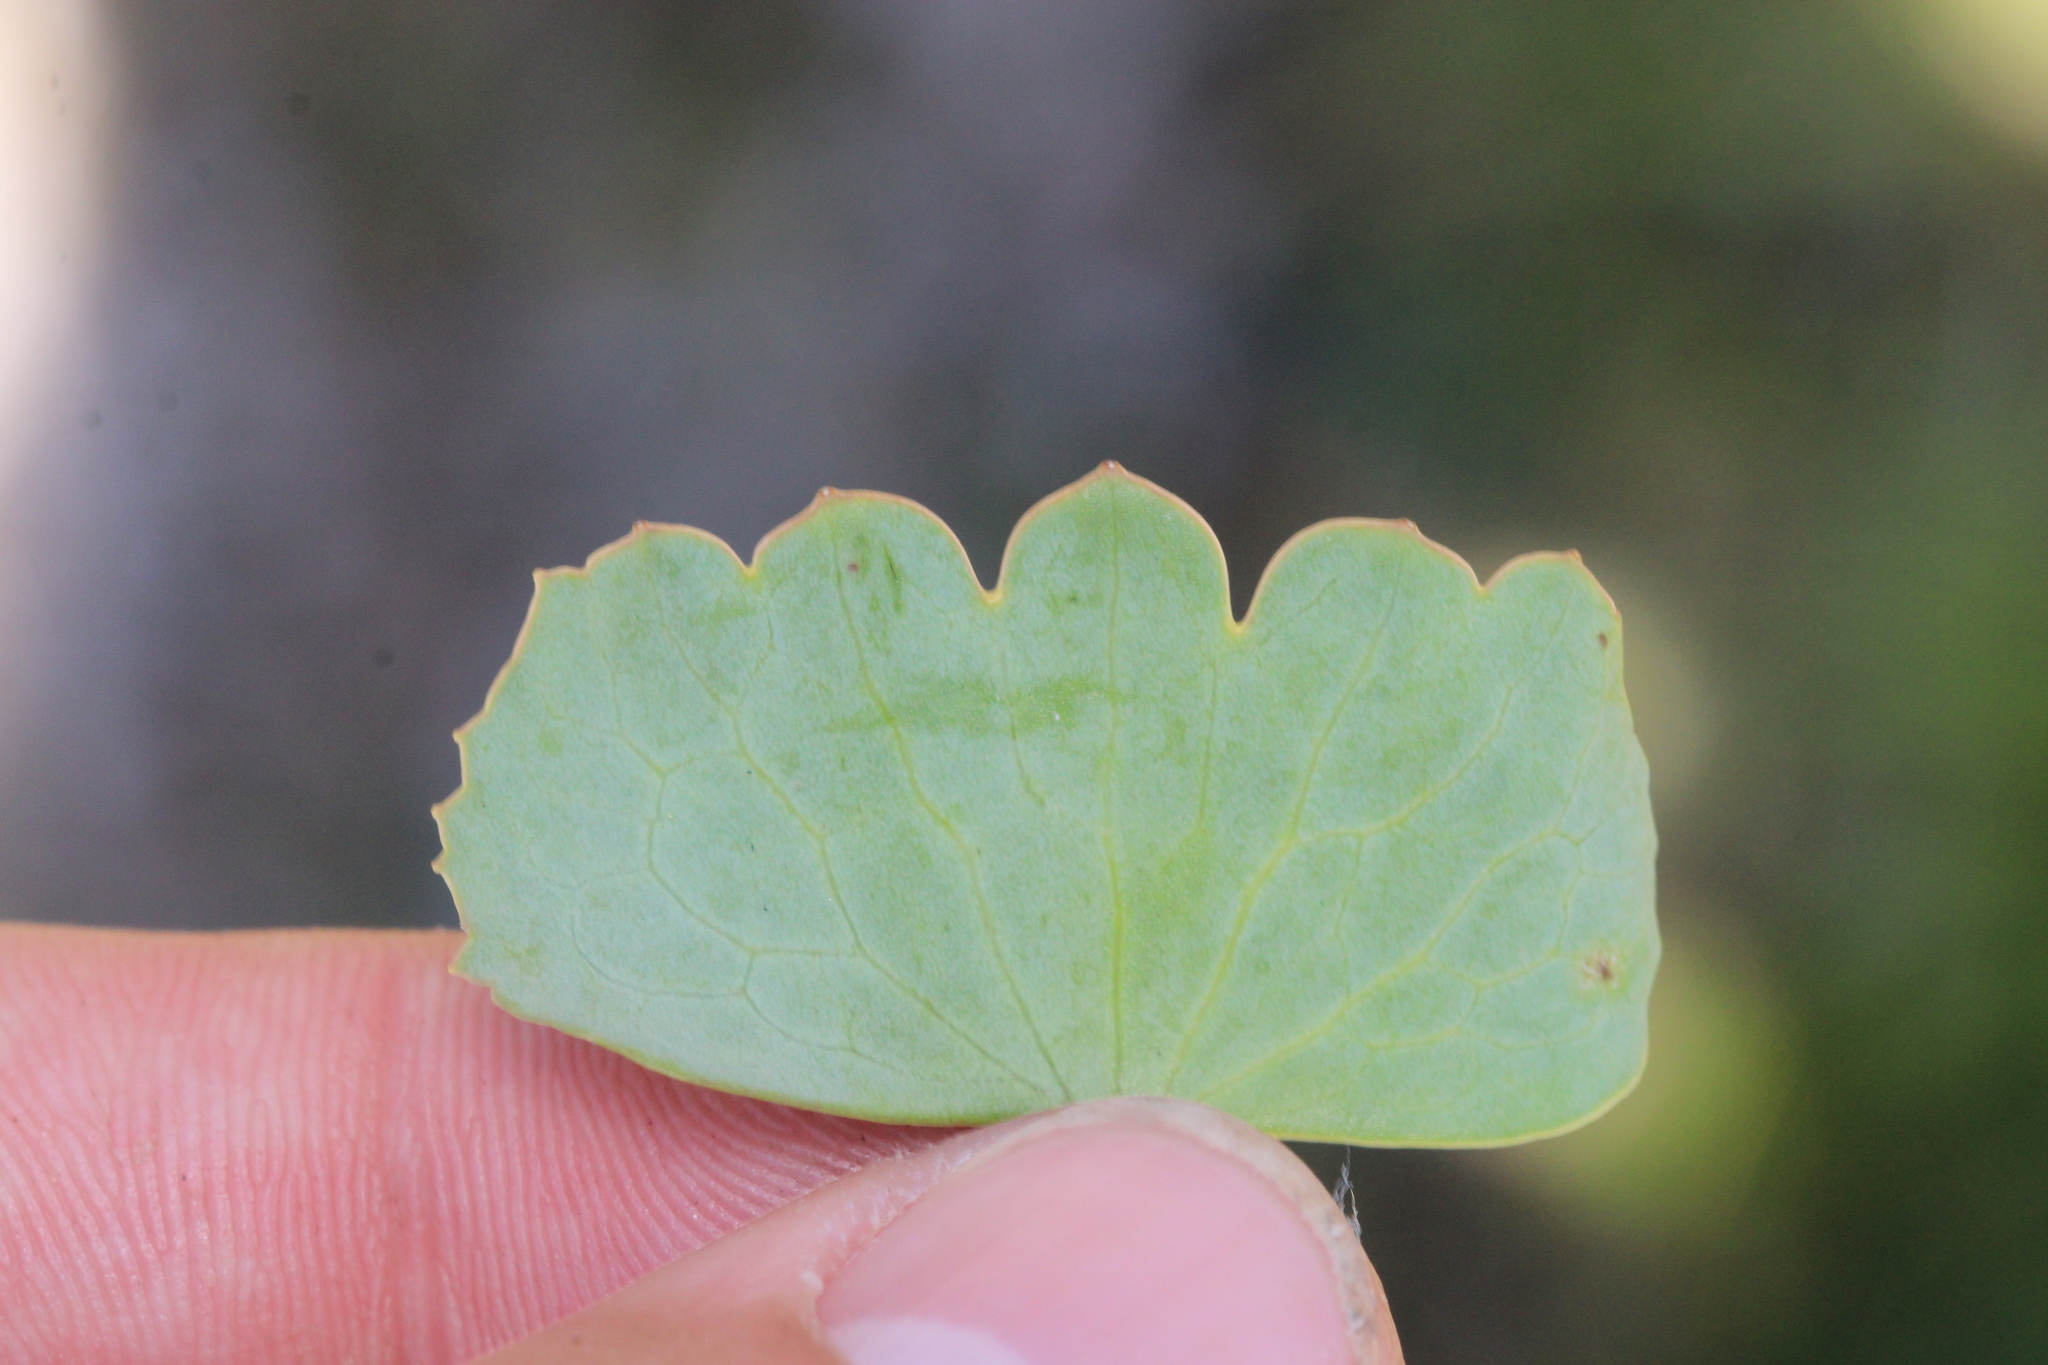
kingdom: Plantae
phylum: Tracheophyta
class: Magnoliopsida
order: Ranunculales
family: Ranunculaceae
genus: Ranunculus
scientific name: Ranunculus hybridus
